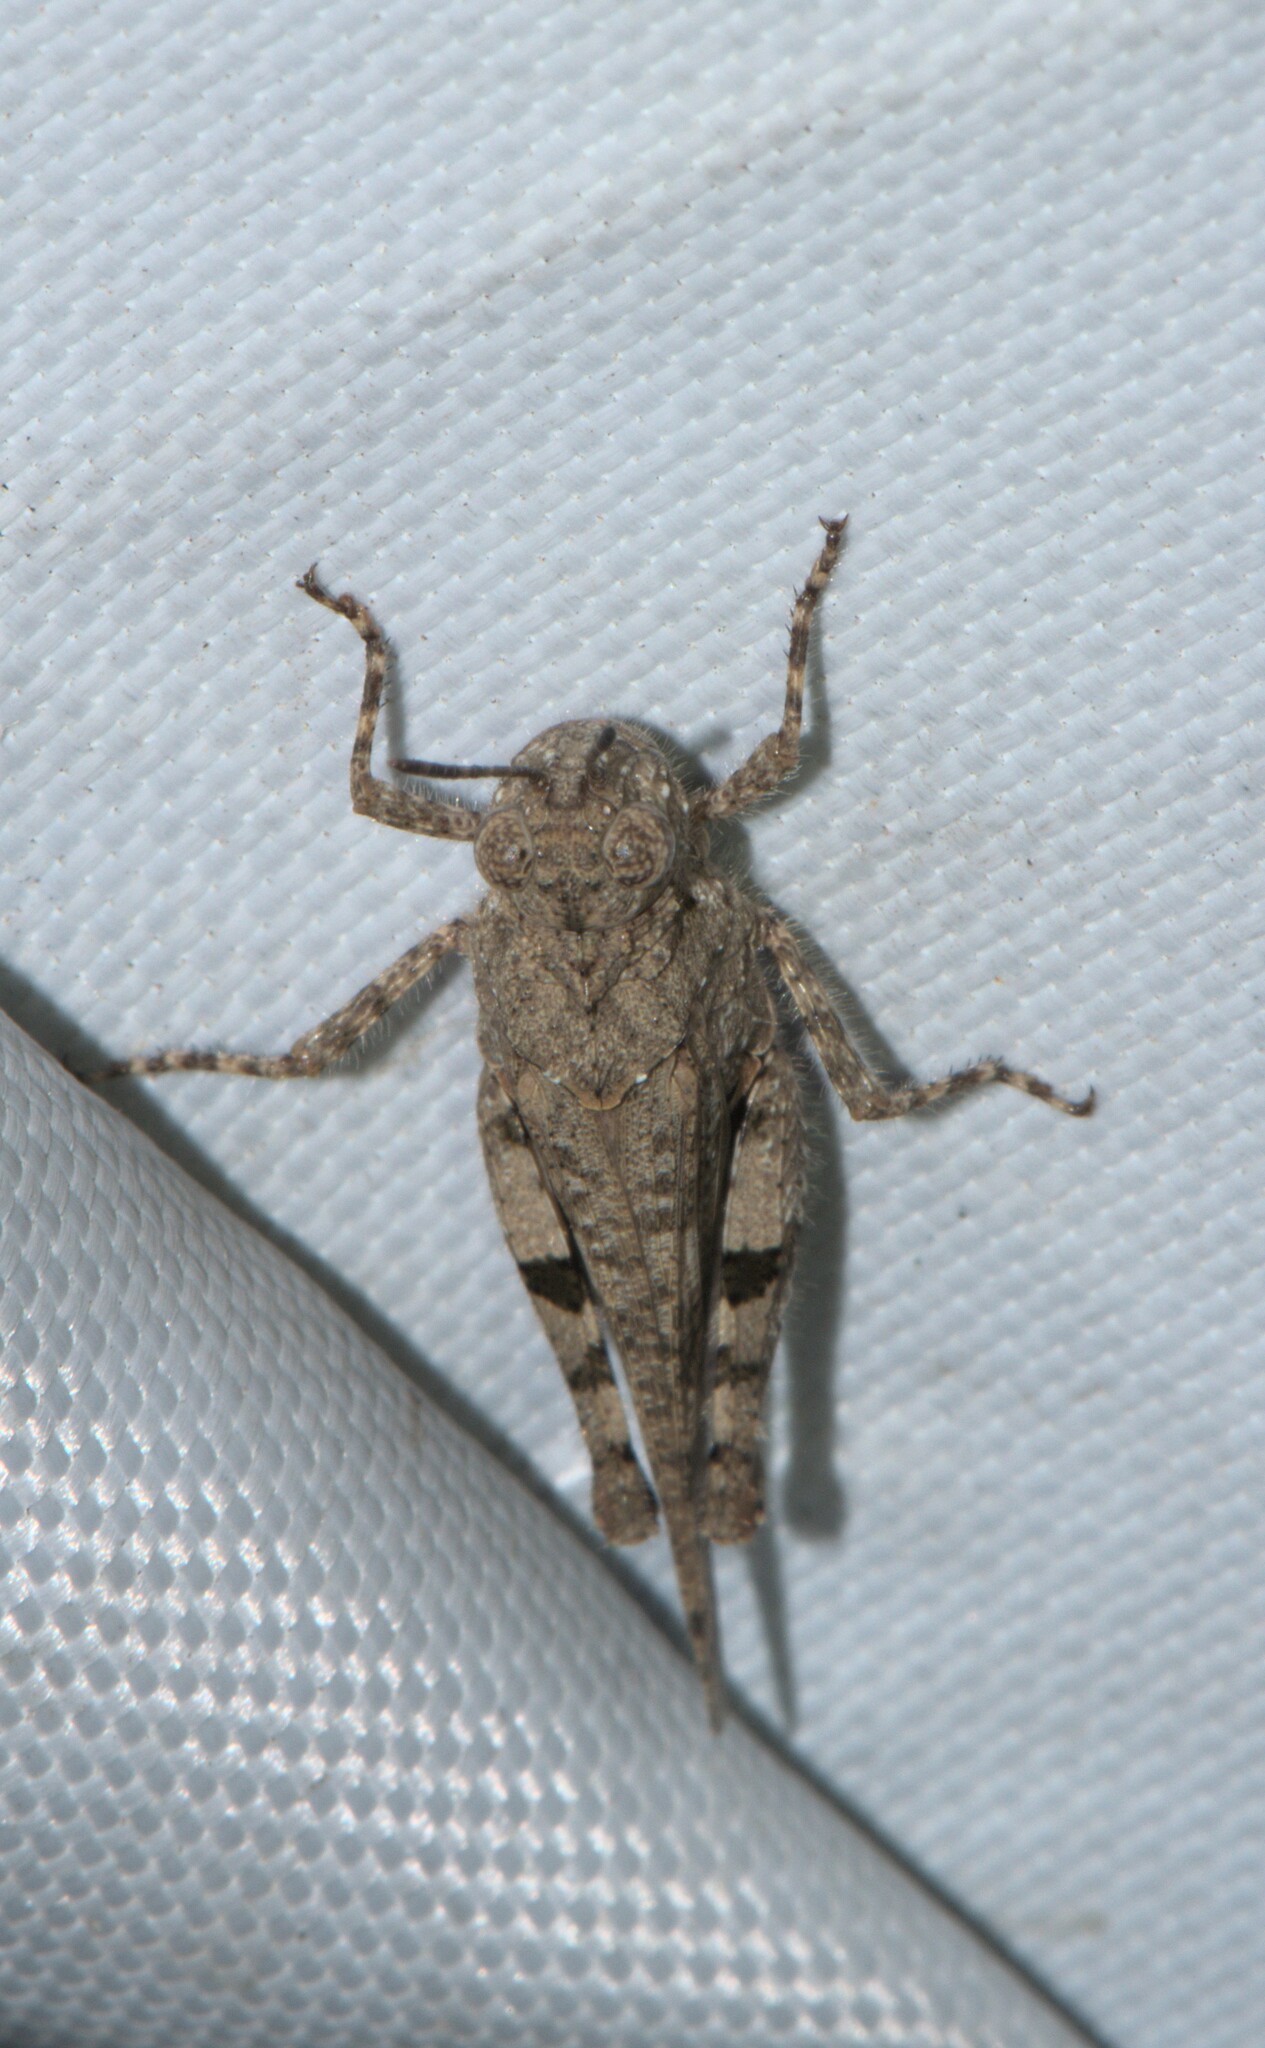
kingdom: Animalia
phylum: Arthropoda
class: Insecta
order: Orthoptera
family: Acrididae
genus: Trilophidia
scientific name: Trilophidia annulata
